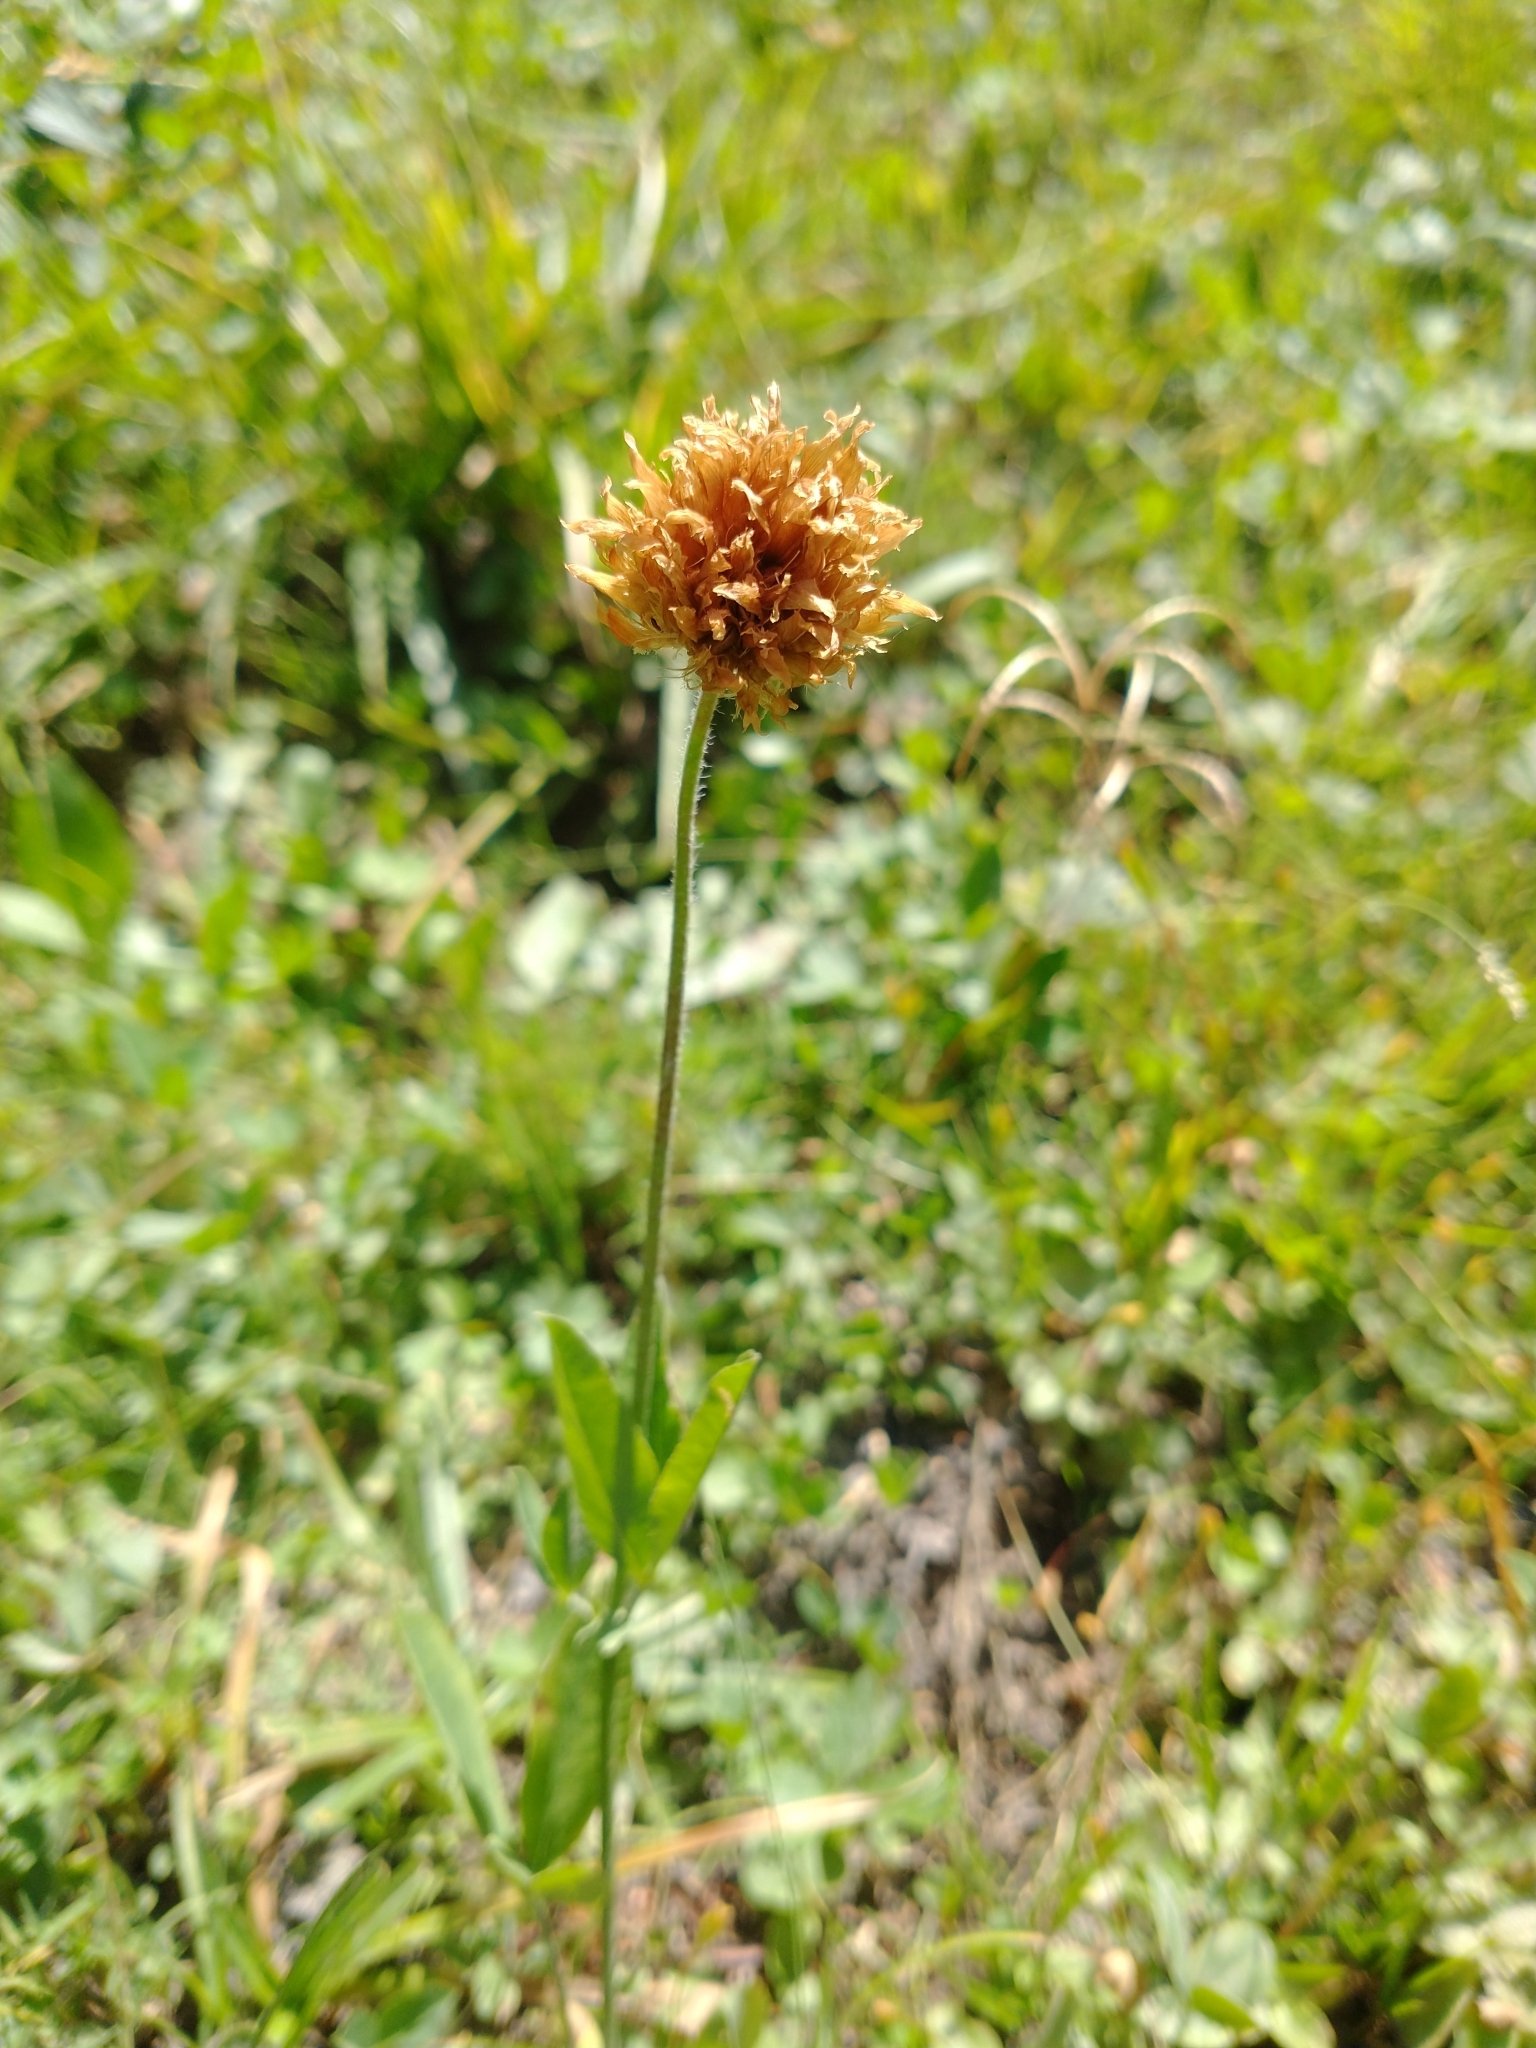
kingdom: Plantae
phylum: Tracheophyta
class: Magnoliopsida
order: Fabales
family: Fabaceae
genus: Trifolium
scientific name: Trifolium longipes
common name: Long-stalk clover
